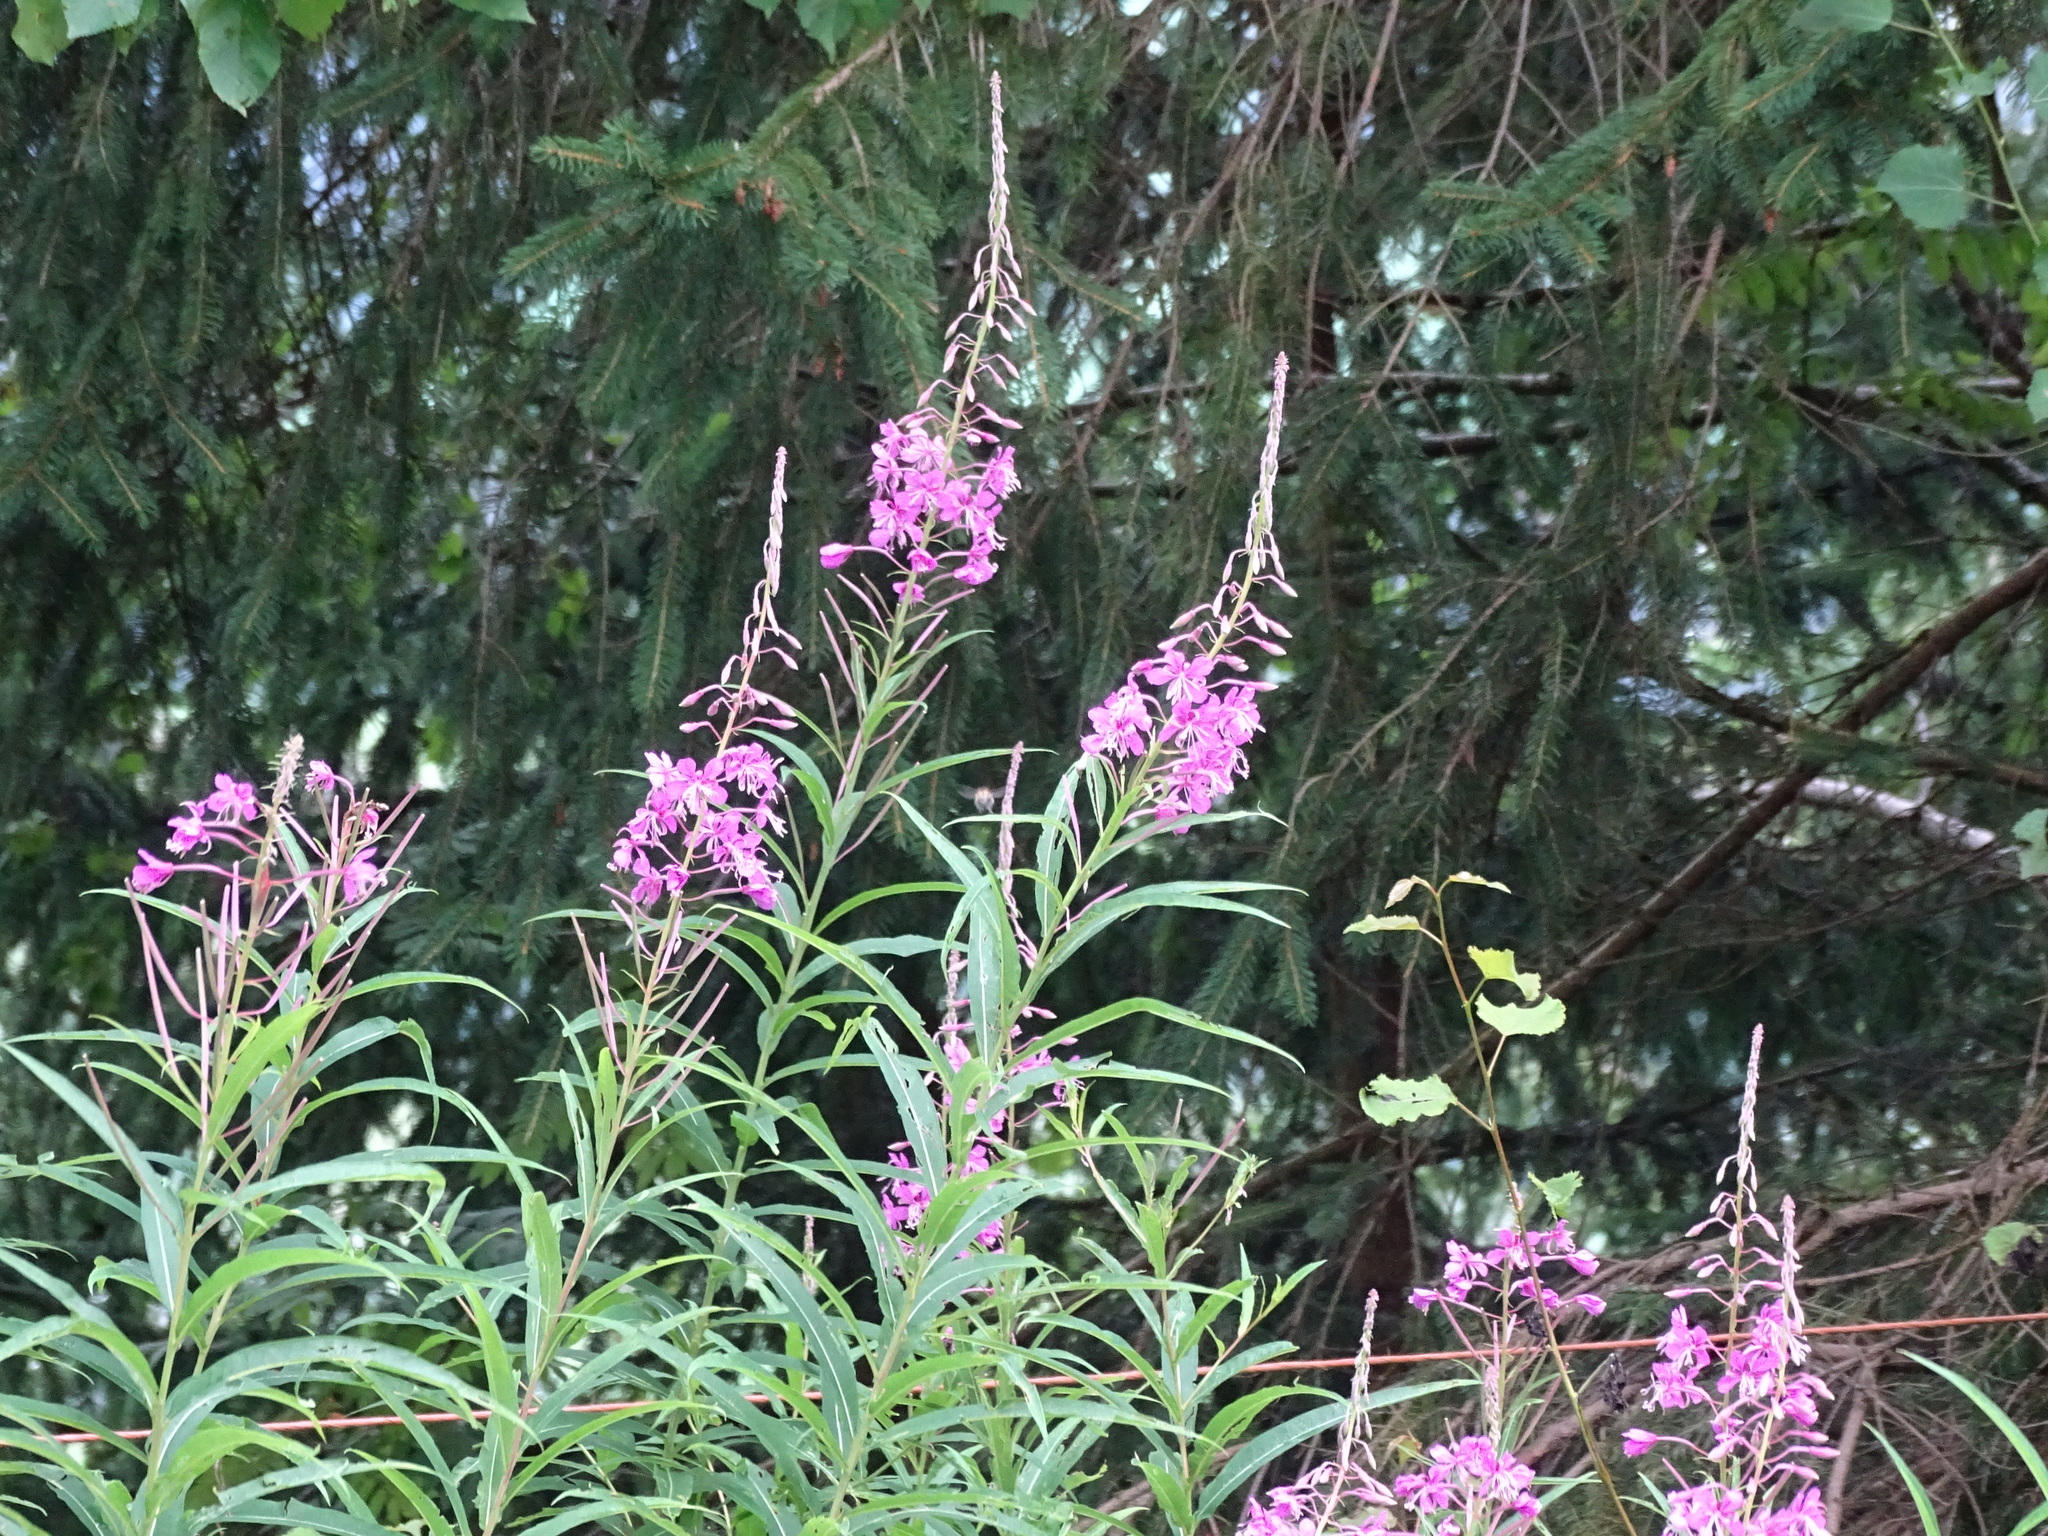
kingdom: Plantae
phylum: Tracheophyta
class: Magnoliopsida
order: Myrtales
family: Onagraceae
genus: Chamaenerion
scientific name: Chamaenerion angustifolium
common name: Fireweed
